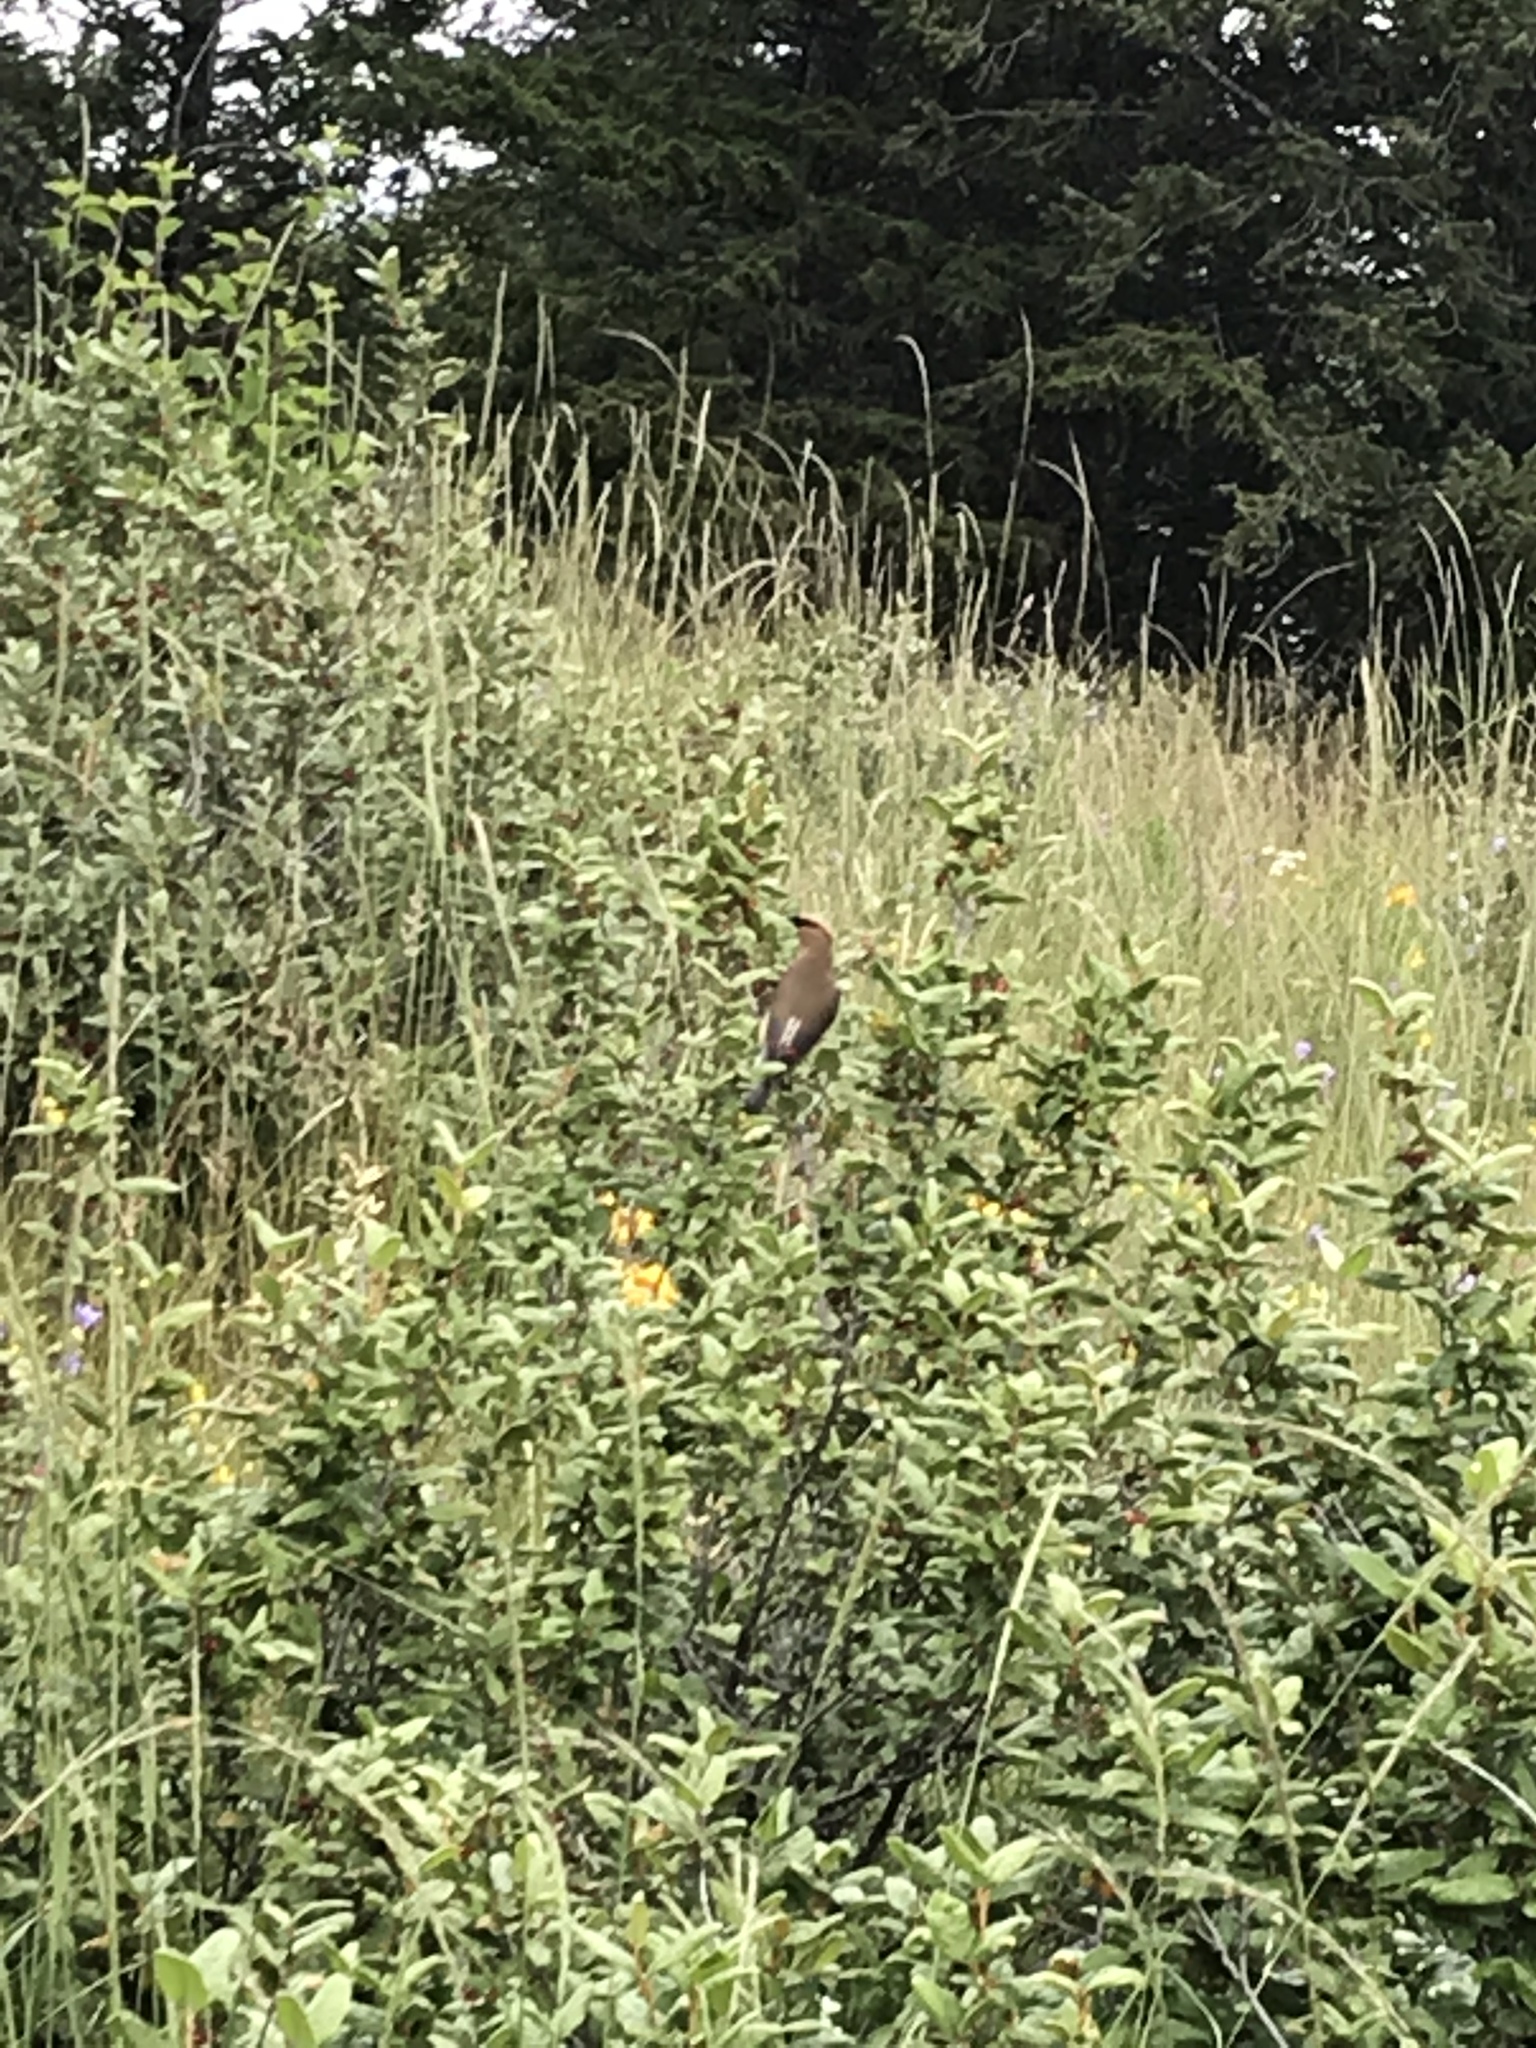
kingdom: Animalia
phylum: Chordata
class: Aves
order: Passeriformes
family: Bombycillidae
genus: Bombycilla
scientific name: Bombycilla cedrorum
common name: Cedar waxwing
